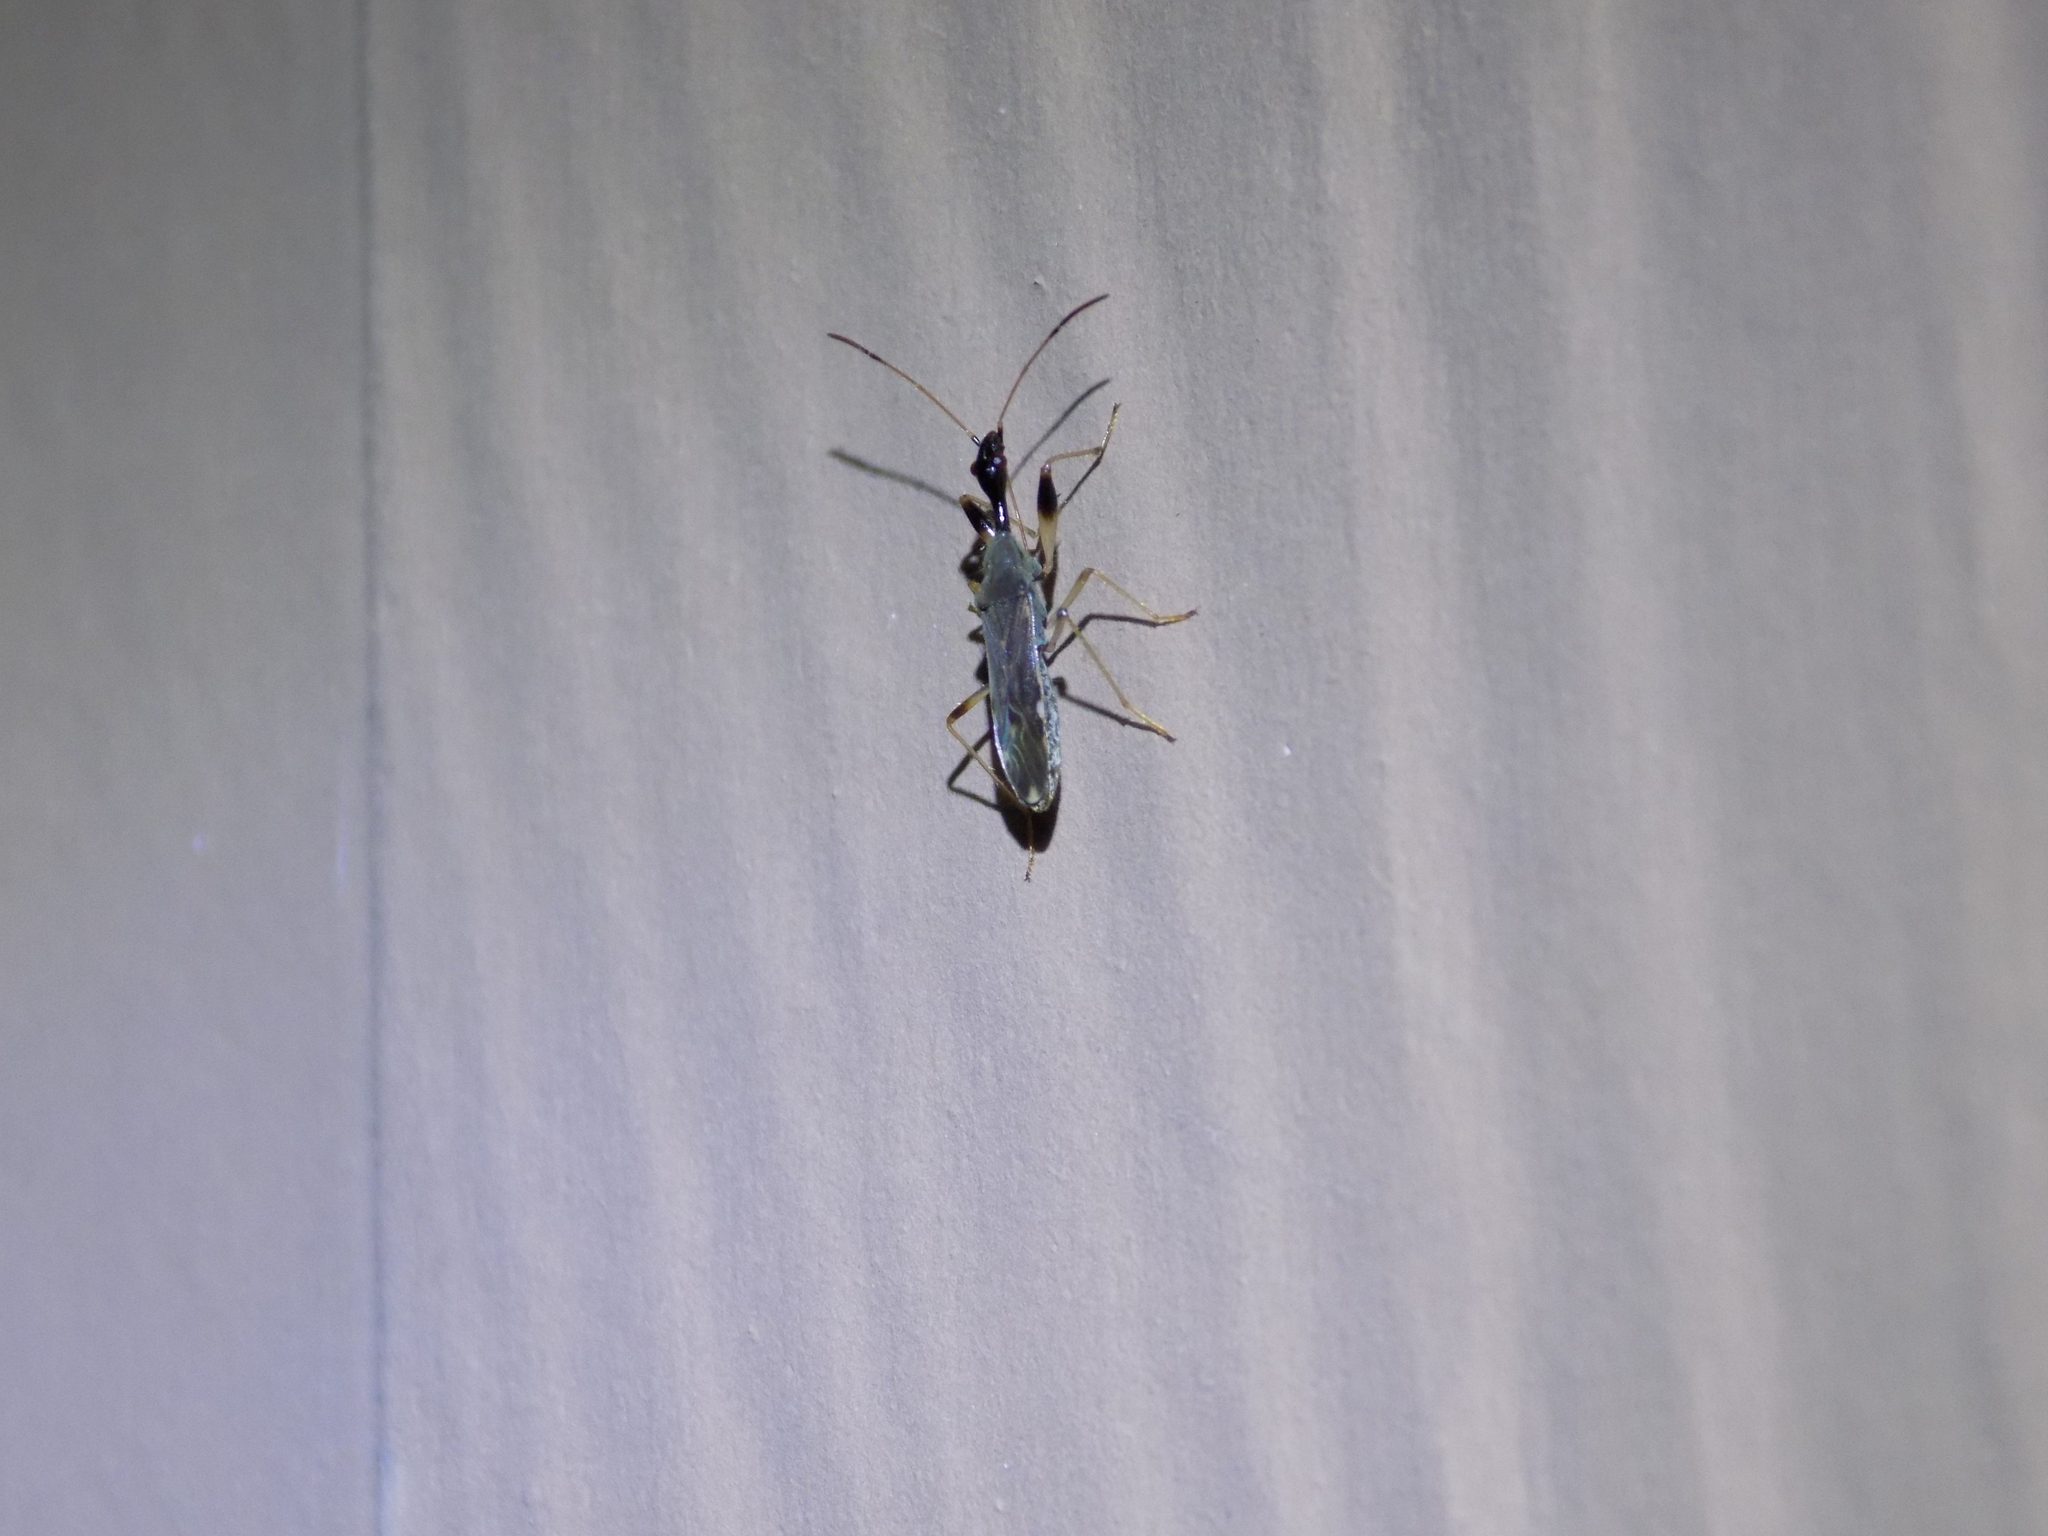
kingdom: Animalia
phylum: Arthropoda
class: Insecta
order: Hemiptera
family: Rhyparochromidae
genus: Myodocha
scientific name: Myodocha serripes
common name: Long-necked seed bug
